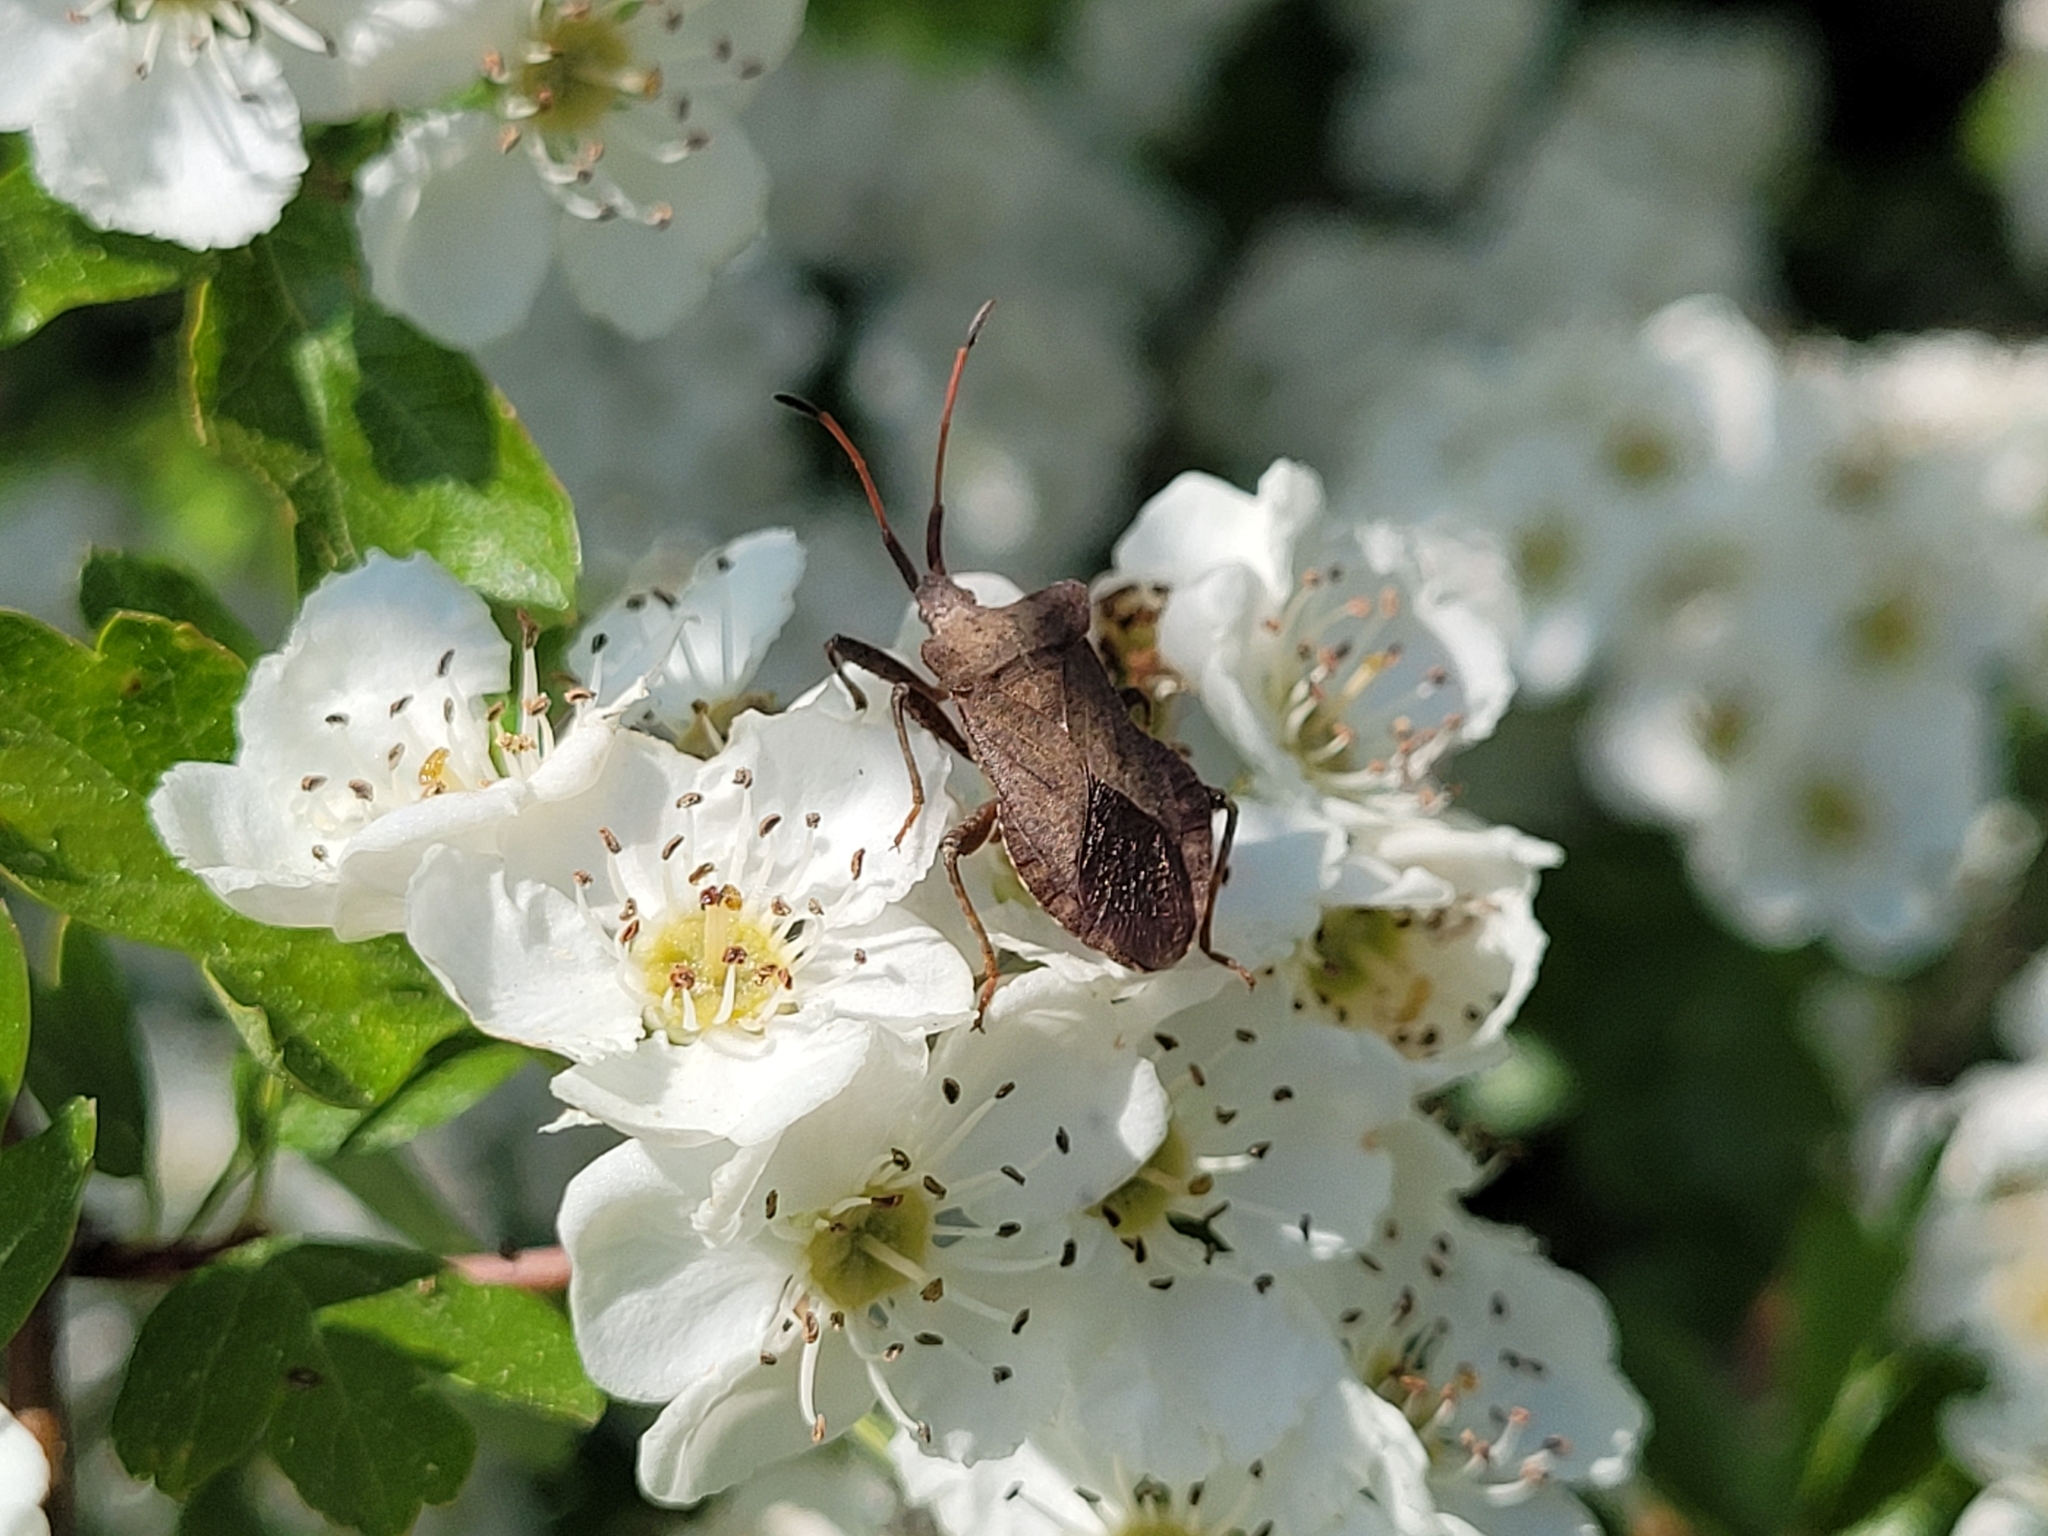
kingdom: Animalia
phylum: Arthropoda
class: Insecta
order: Hemiptera
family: Coreidae
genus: Coreus
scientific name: Coreus marginatus
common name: Dock bug
